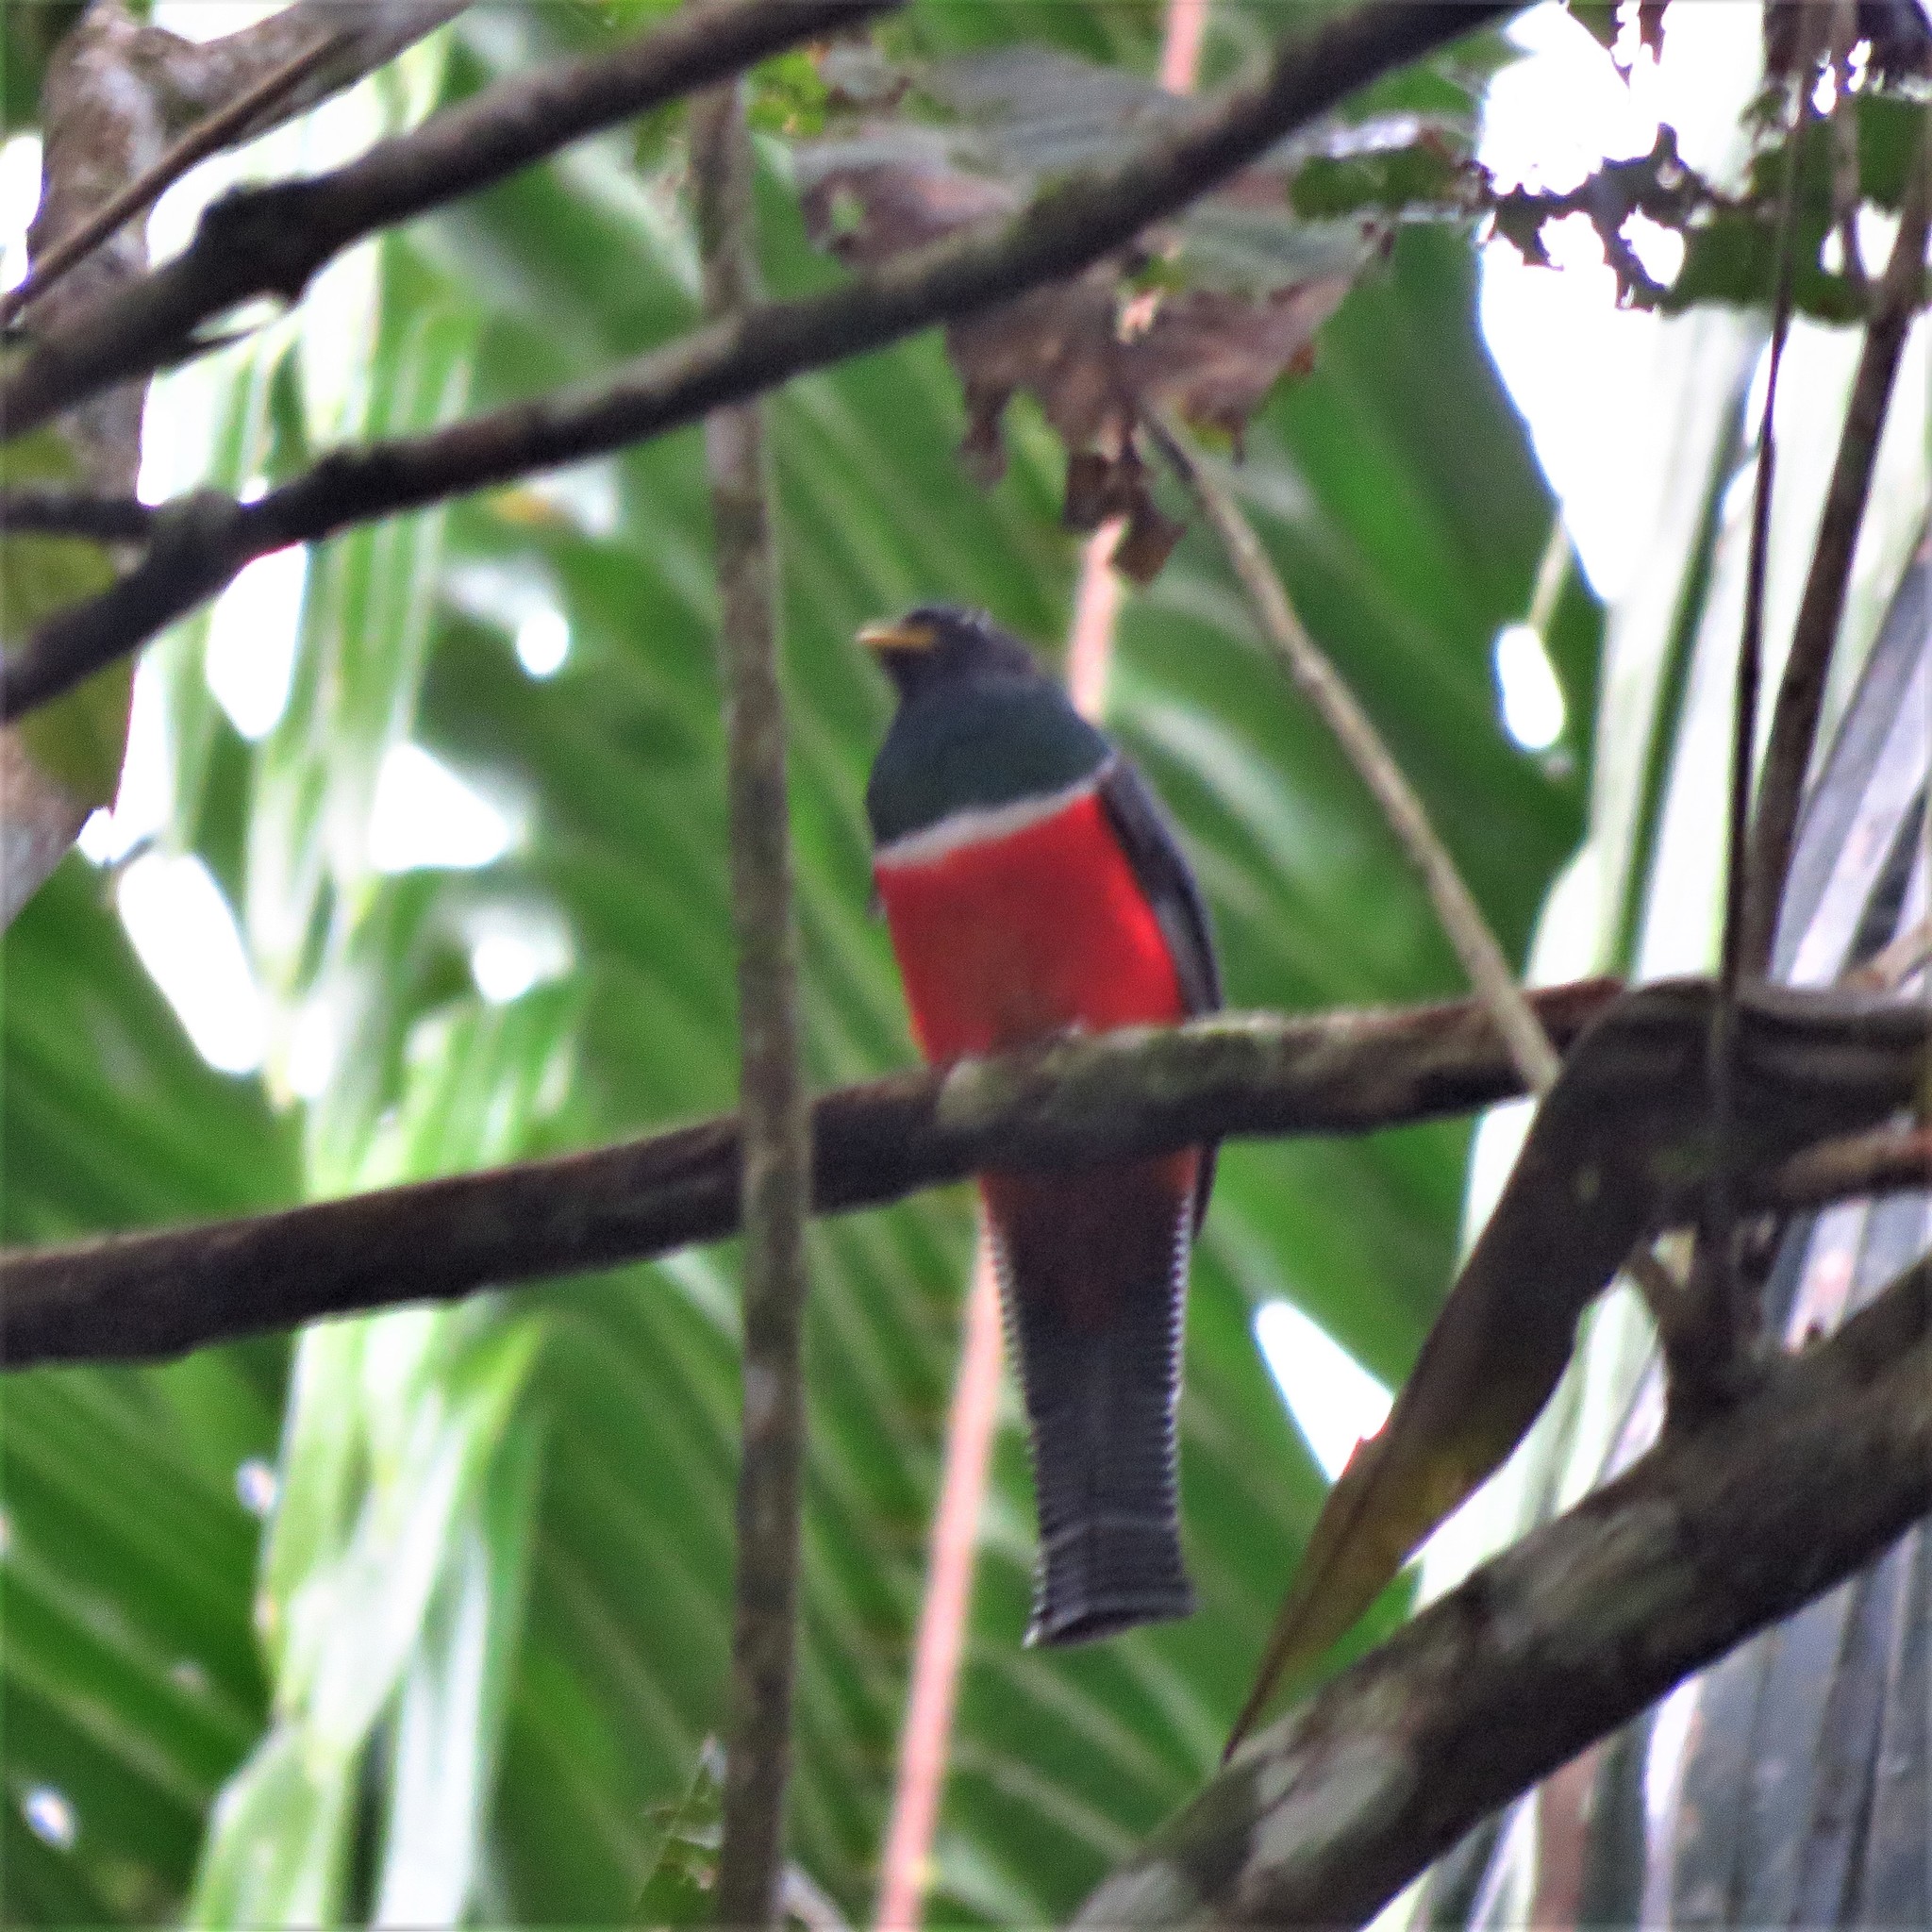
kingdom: Animalia
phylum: Chordata
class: Aves
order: Trogoniformes
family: Trogonidae
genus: Trogon
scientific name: Trogon collaris
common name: Collared trogon
